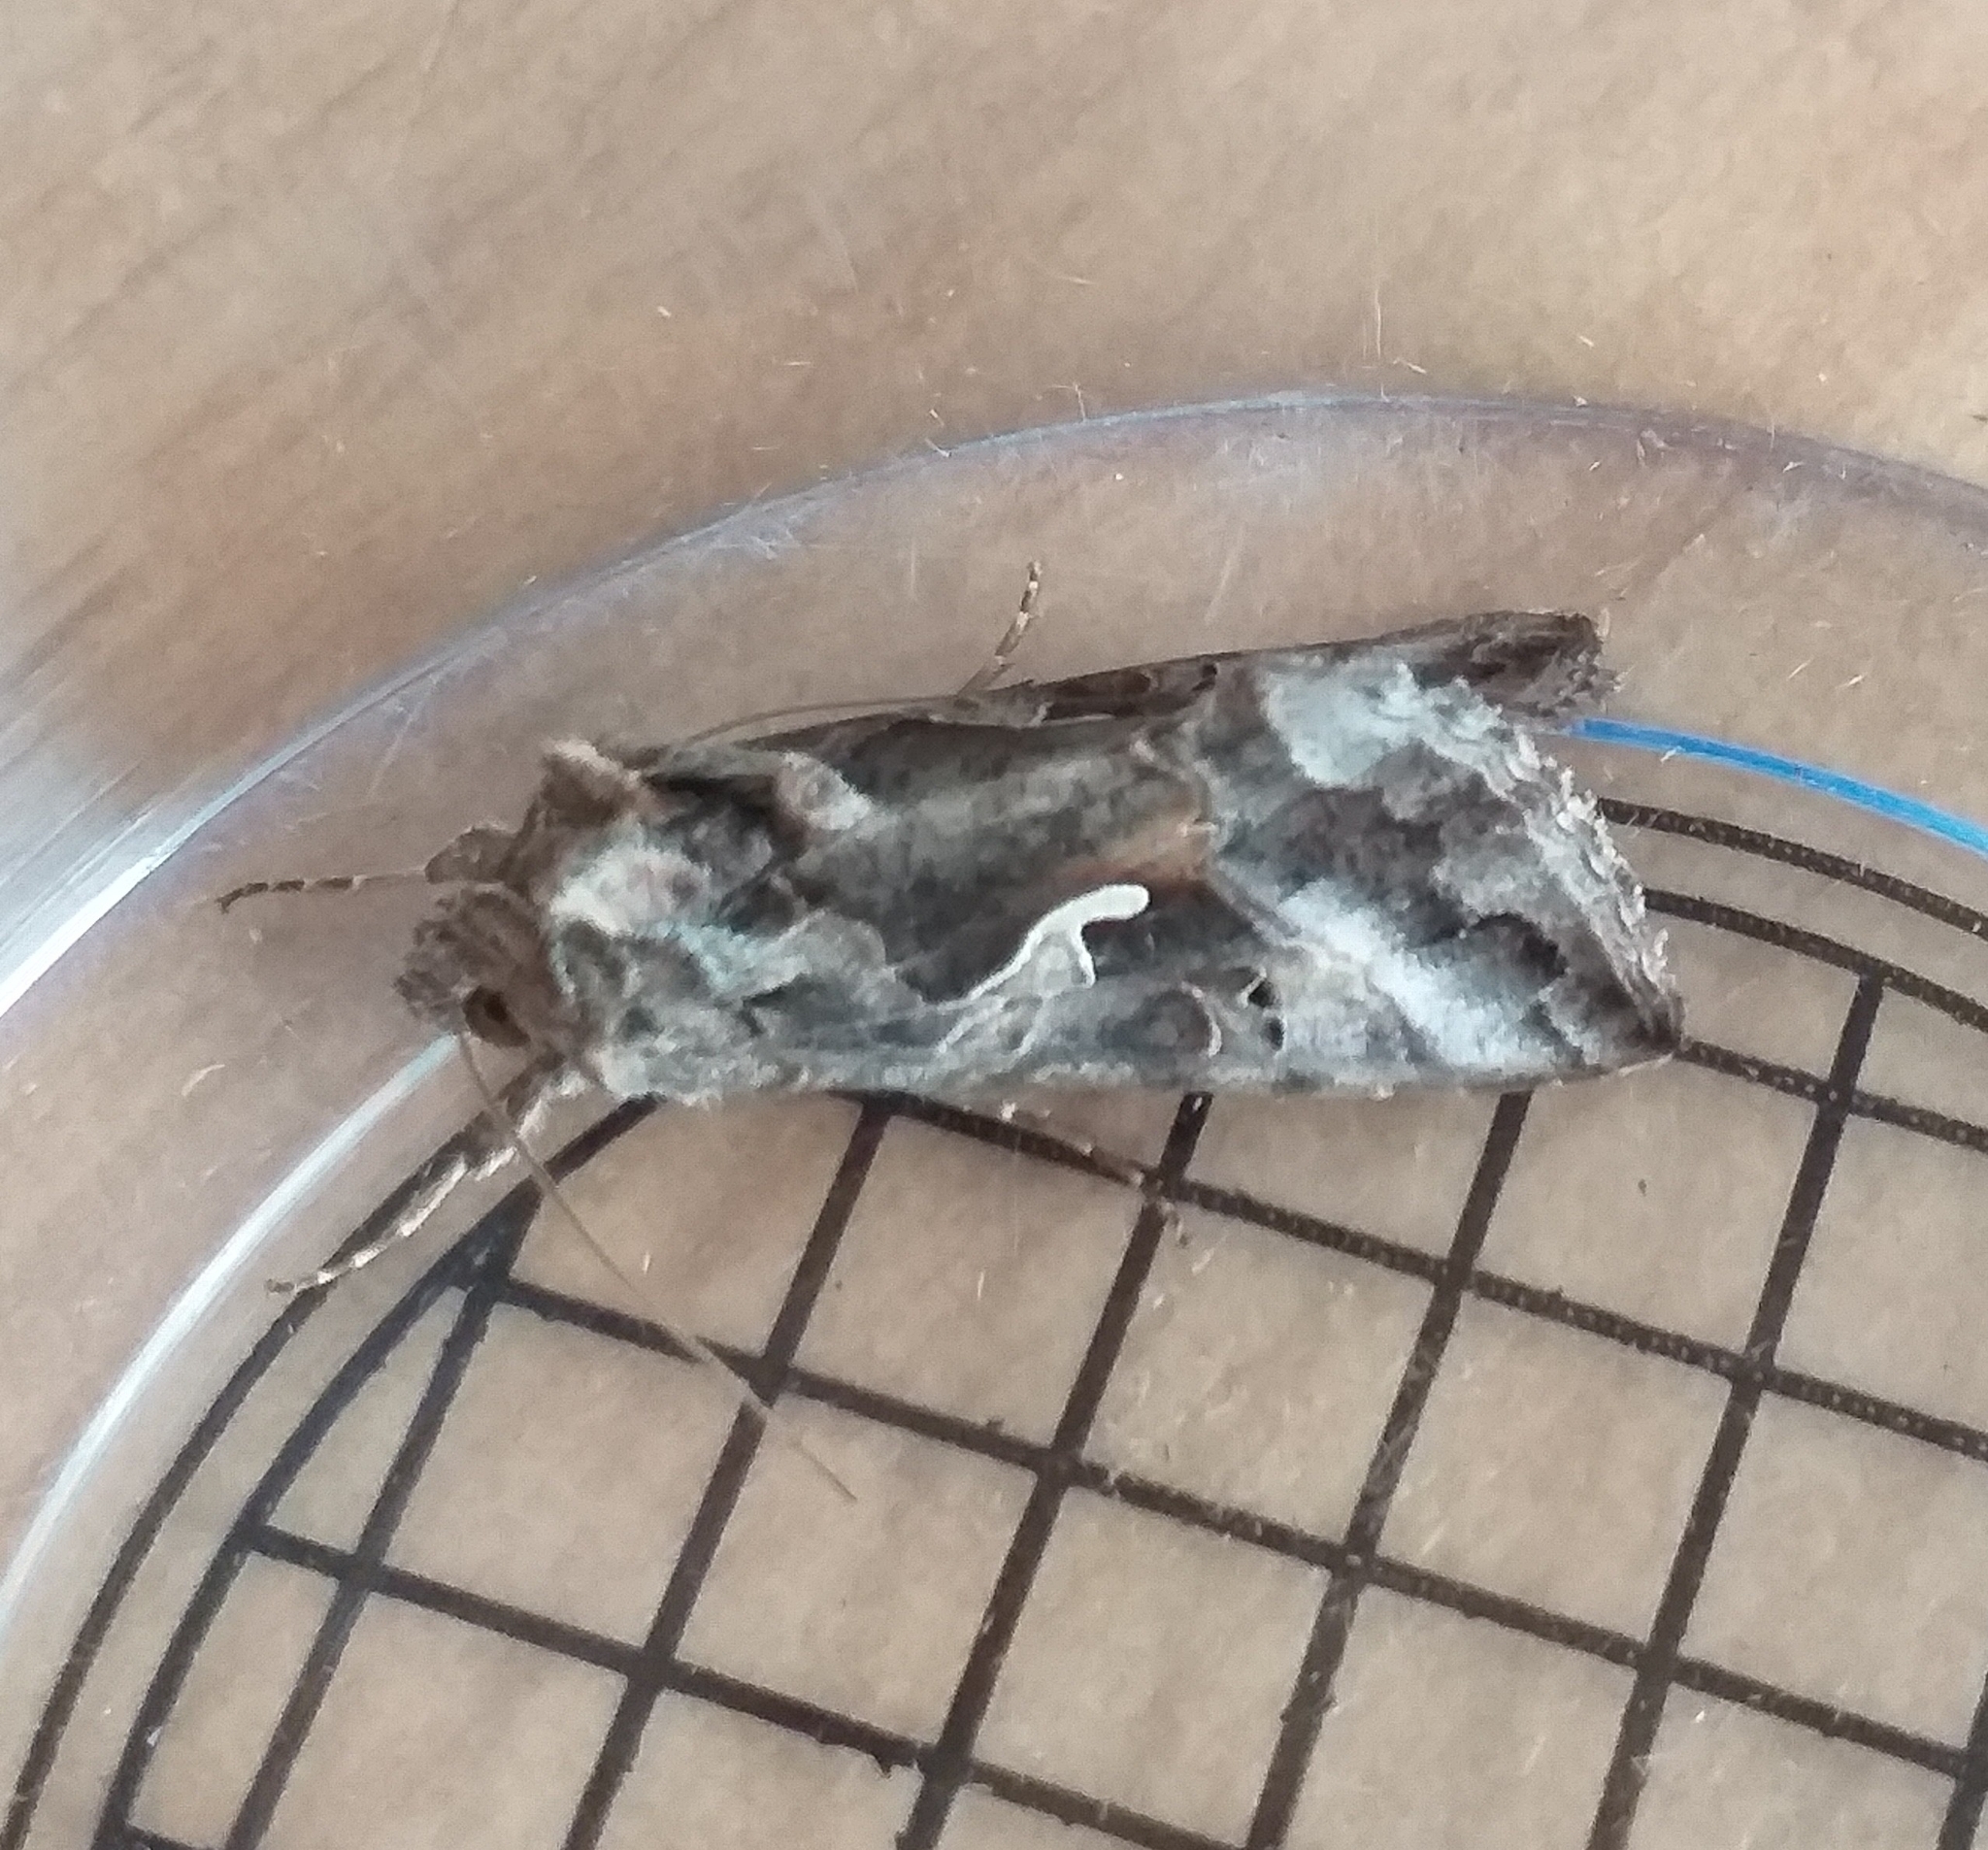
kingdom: Animalia
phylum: Arthropoda
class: Insecta
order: Lepidoptera
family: Noctuidae
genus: Autographa
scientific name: Autographa gamma
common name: Silver y
